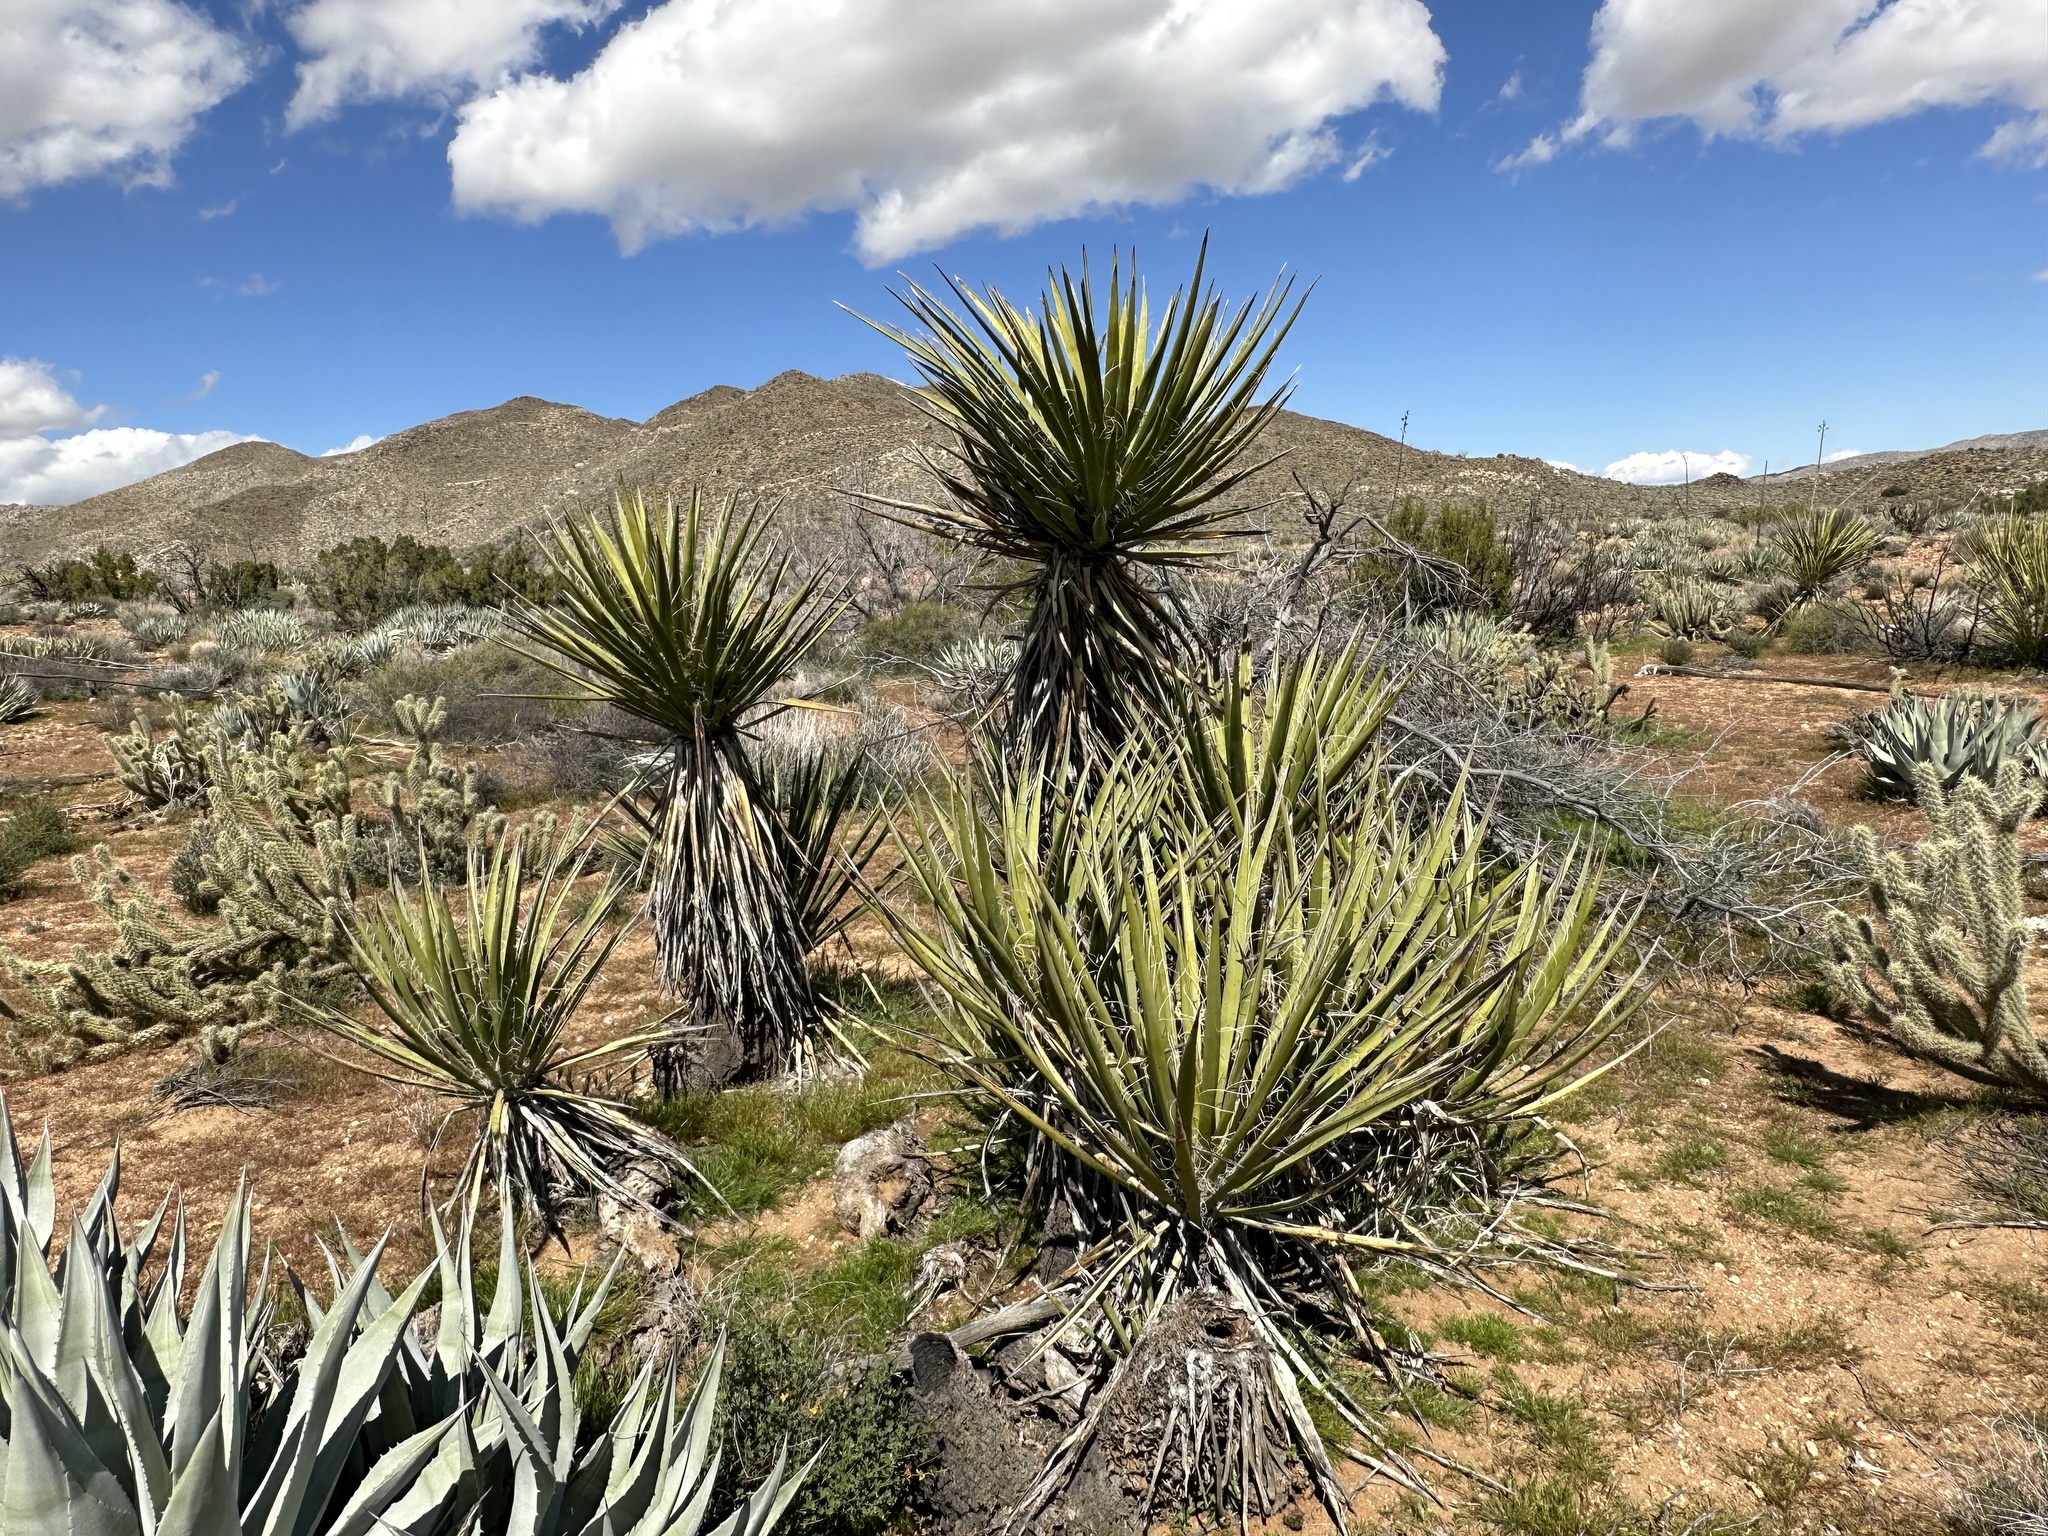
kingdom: Plantae
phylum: Tracheophyta
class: Liliopsida
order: Asparagales
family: Asparagaceae
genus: Yucca
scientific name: Yucca schidigera
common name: Mojave yucca
